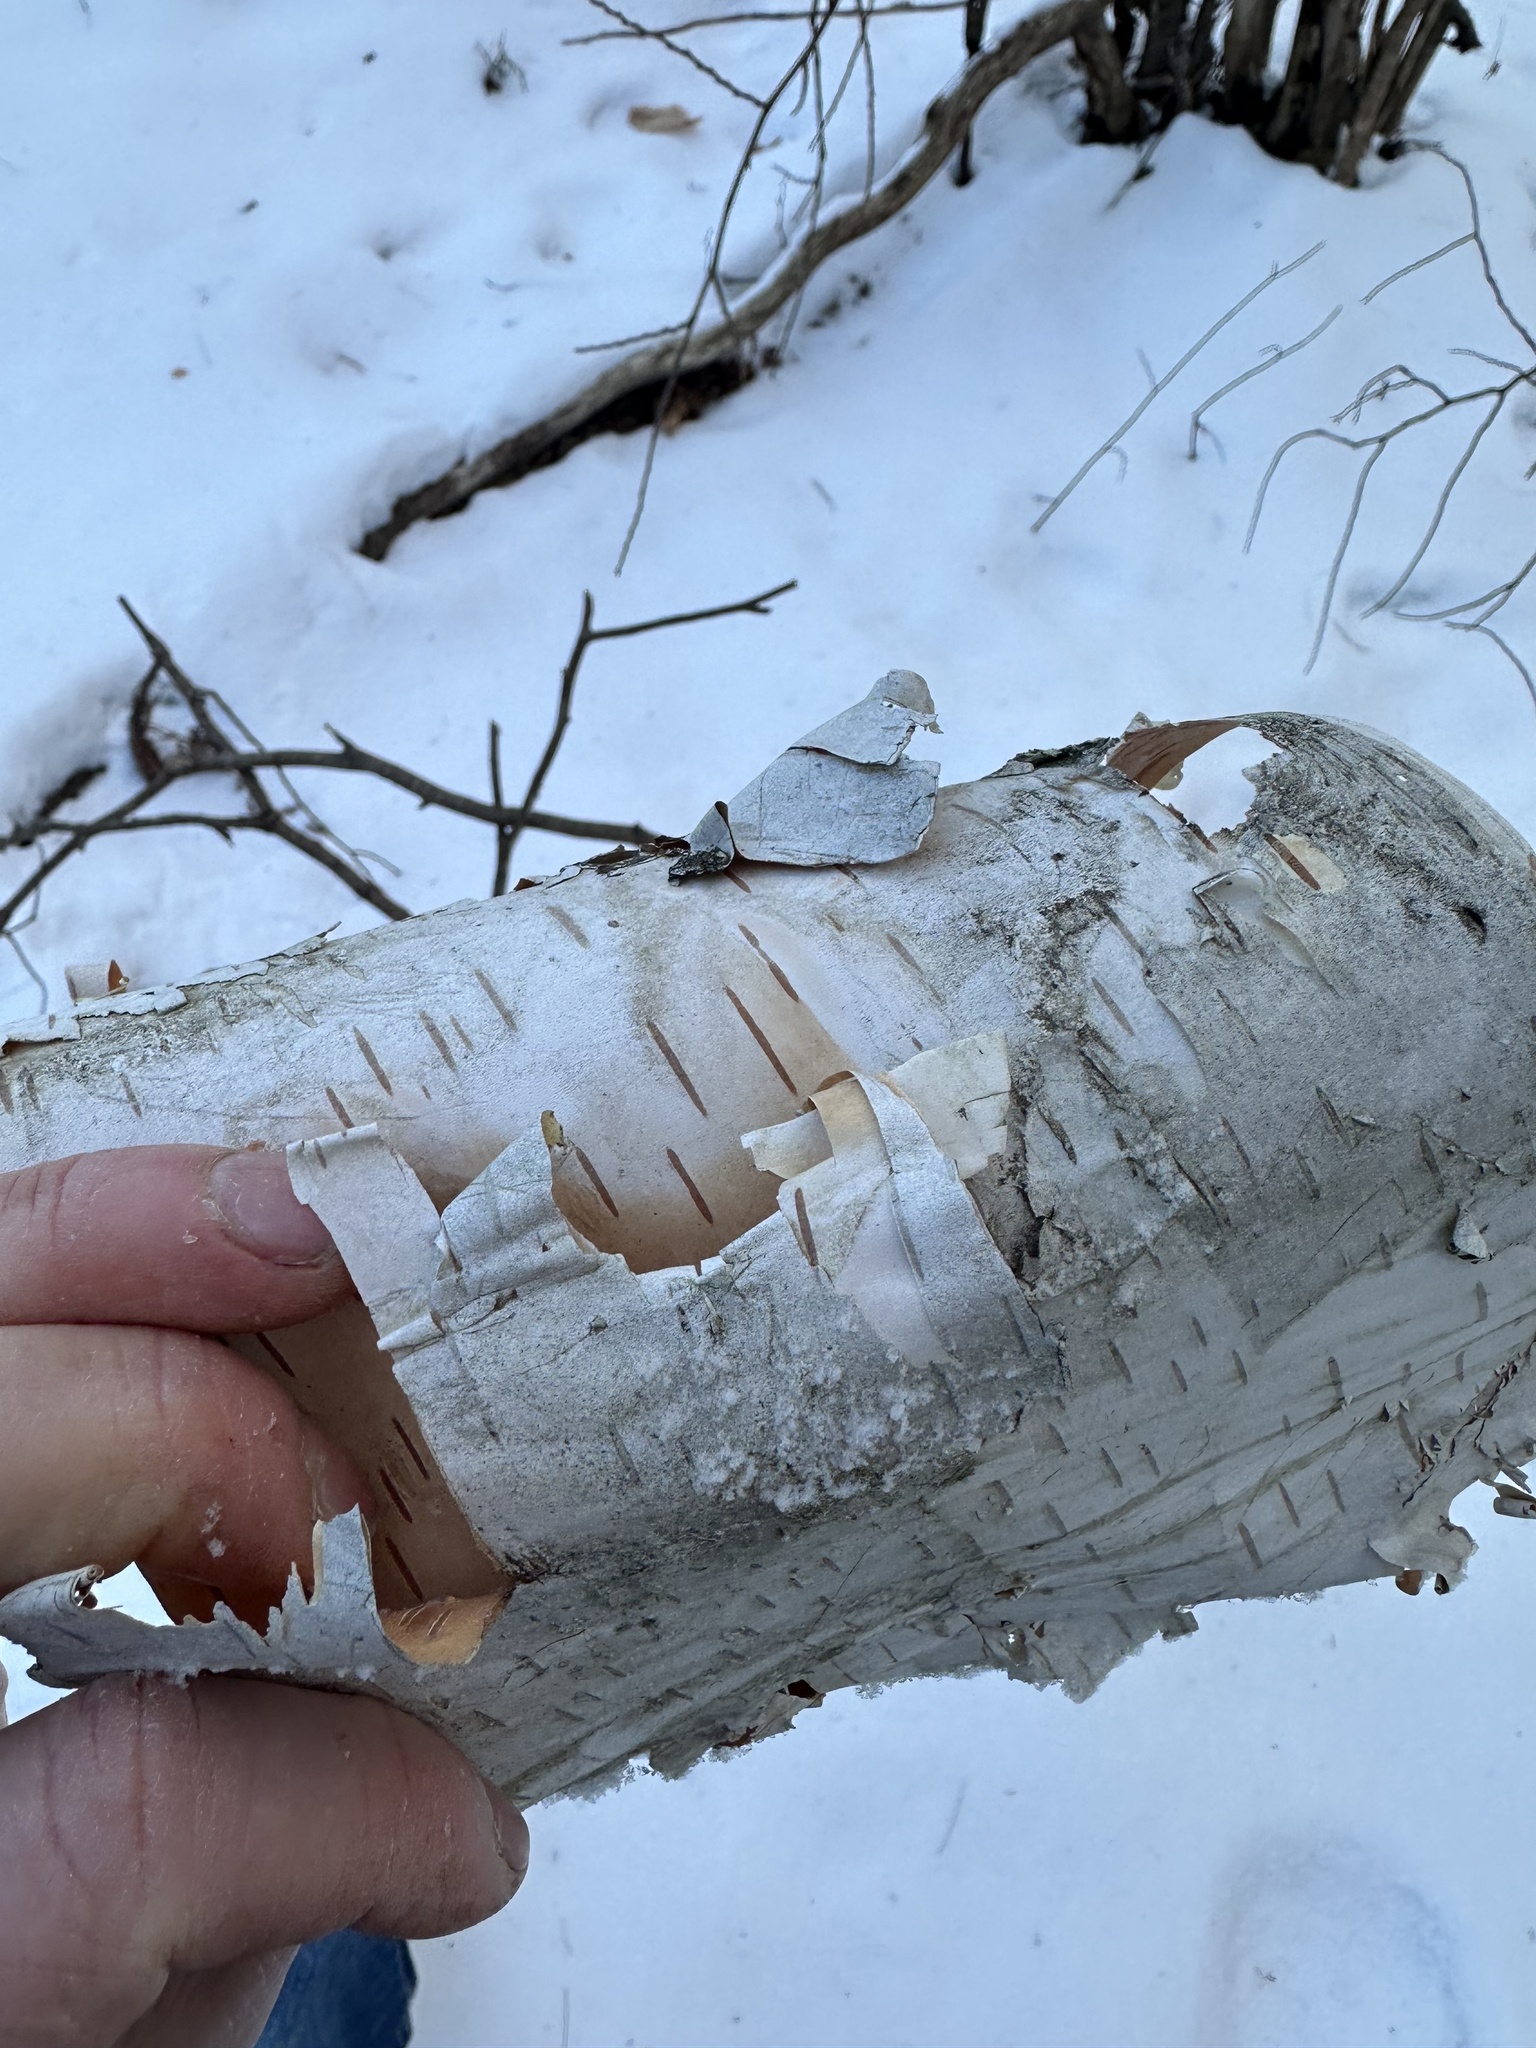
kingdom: Plantae
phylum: Tracheophyta
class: Magnoliopsida
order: Fagales
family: Betulaceae
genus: Betula
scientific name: Betula papyrifera
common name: Paper birch
